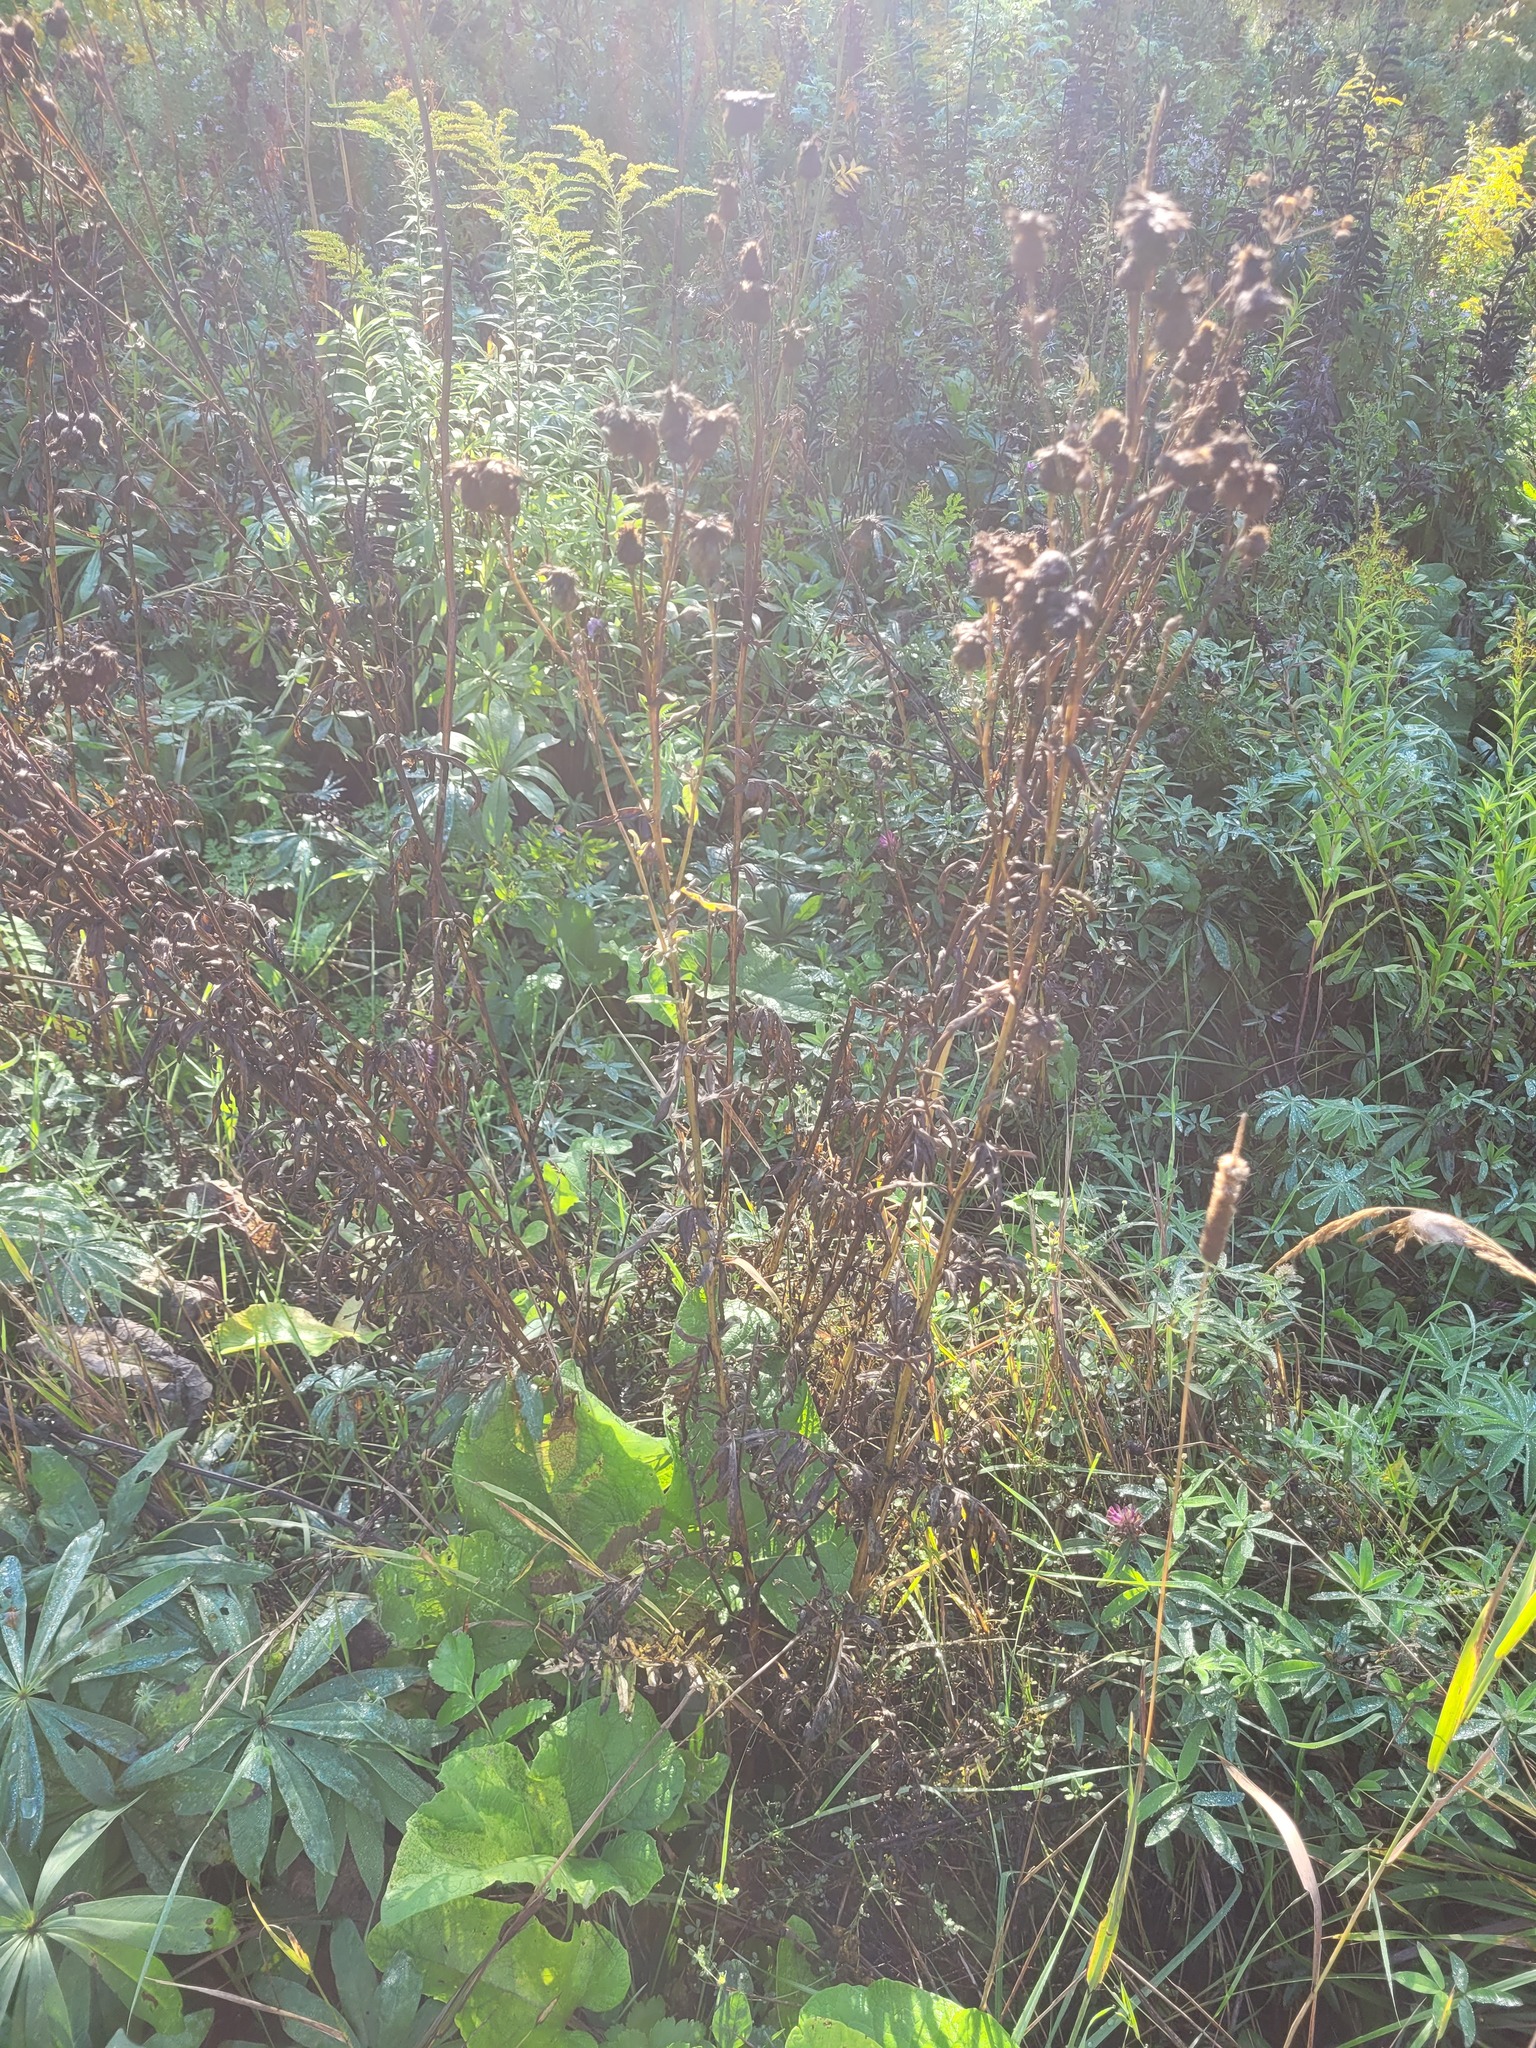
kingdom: Plantae
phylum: Tracheophyta
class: Magnoliopsida
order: Asterales
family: Asteraceae
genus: Centaurea
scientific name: Centaurea scabiosa
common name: Greater knapweed
